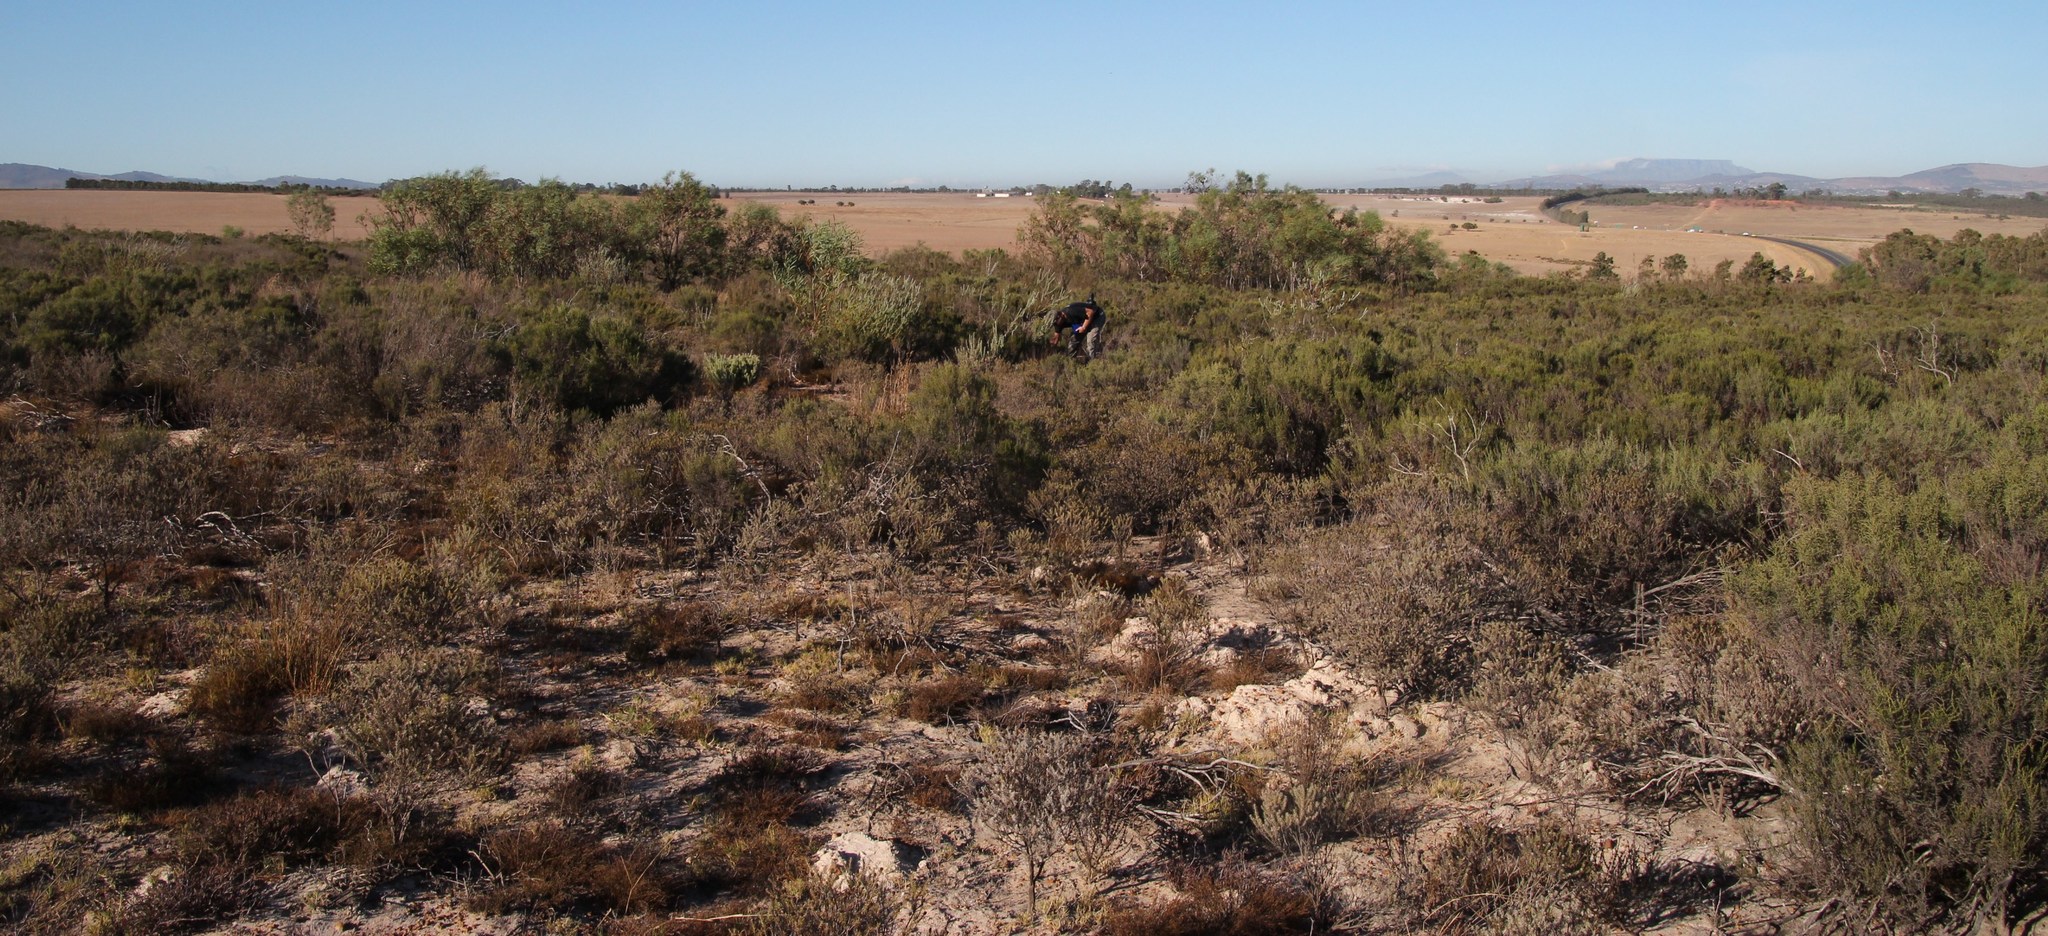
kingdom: Plantae
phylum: Tracheophyta
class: Magnoliopsida
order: Proteales
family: Proteaceae
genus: Leucadendron
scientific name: Leucadendron verticillatum
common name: Klapmuts conebush
